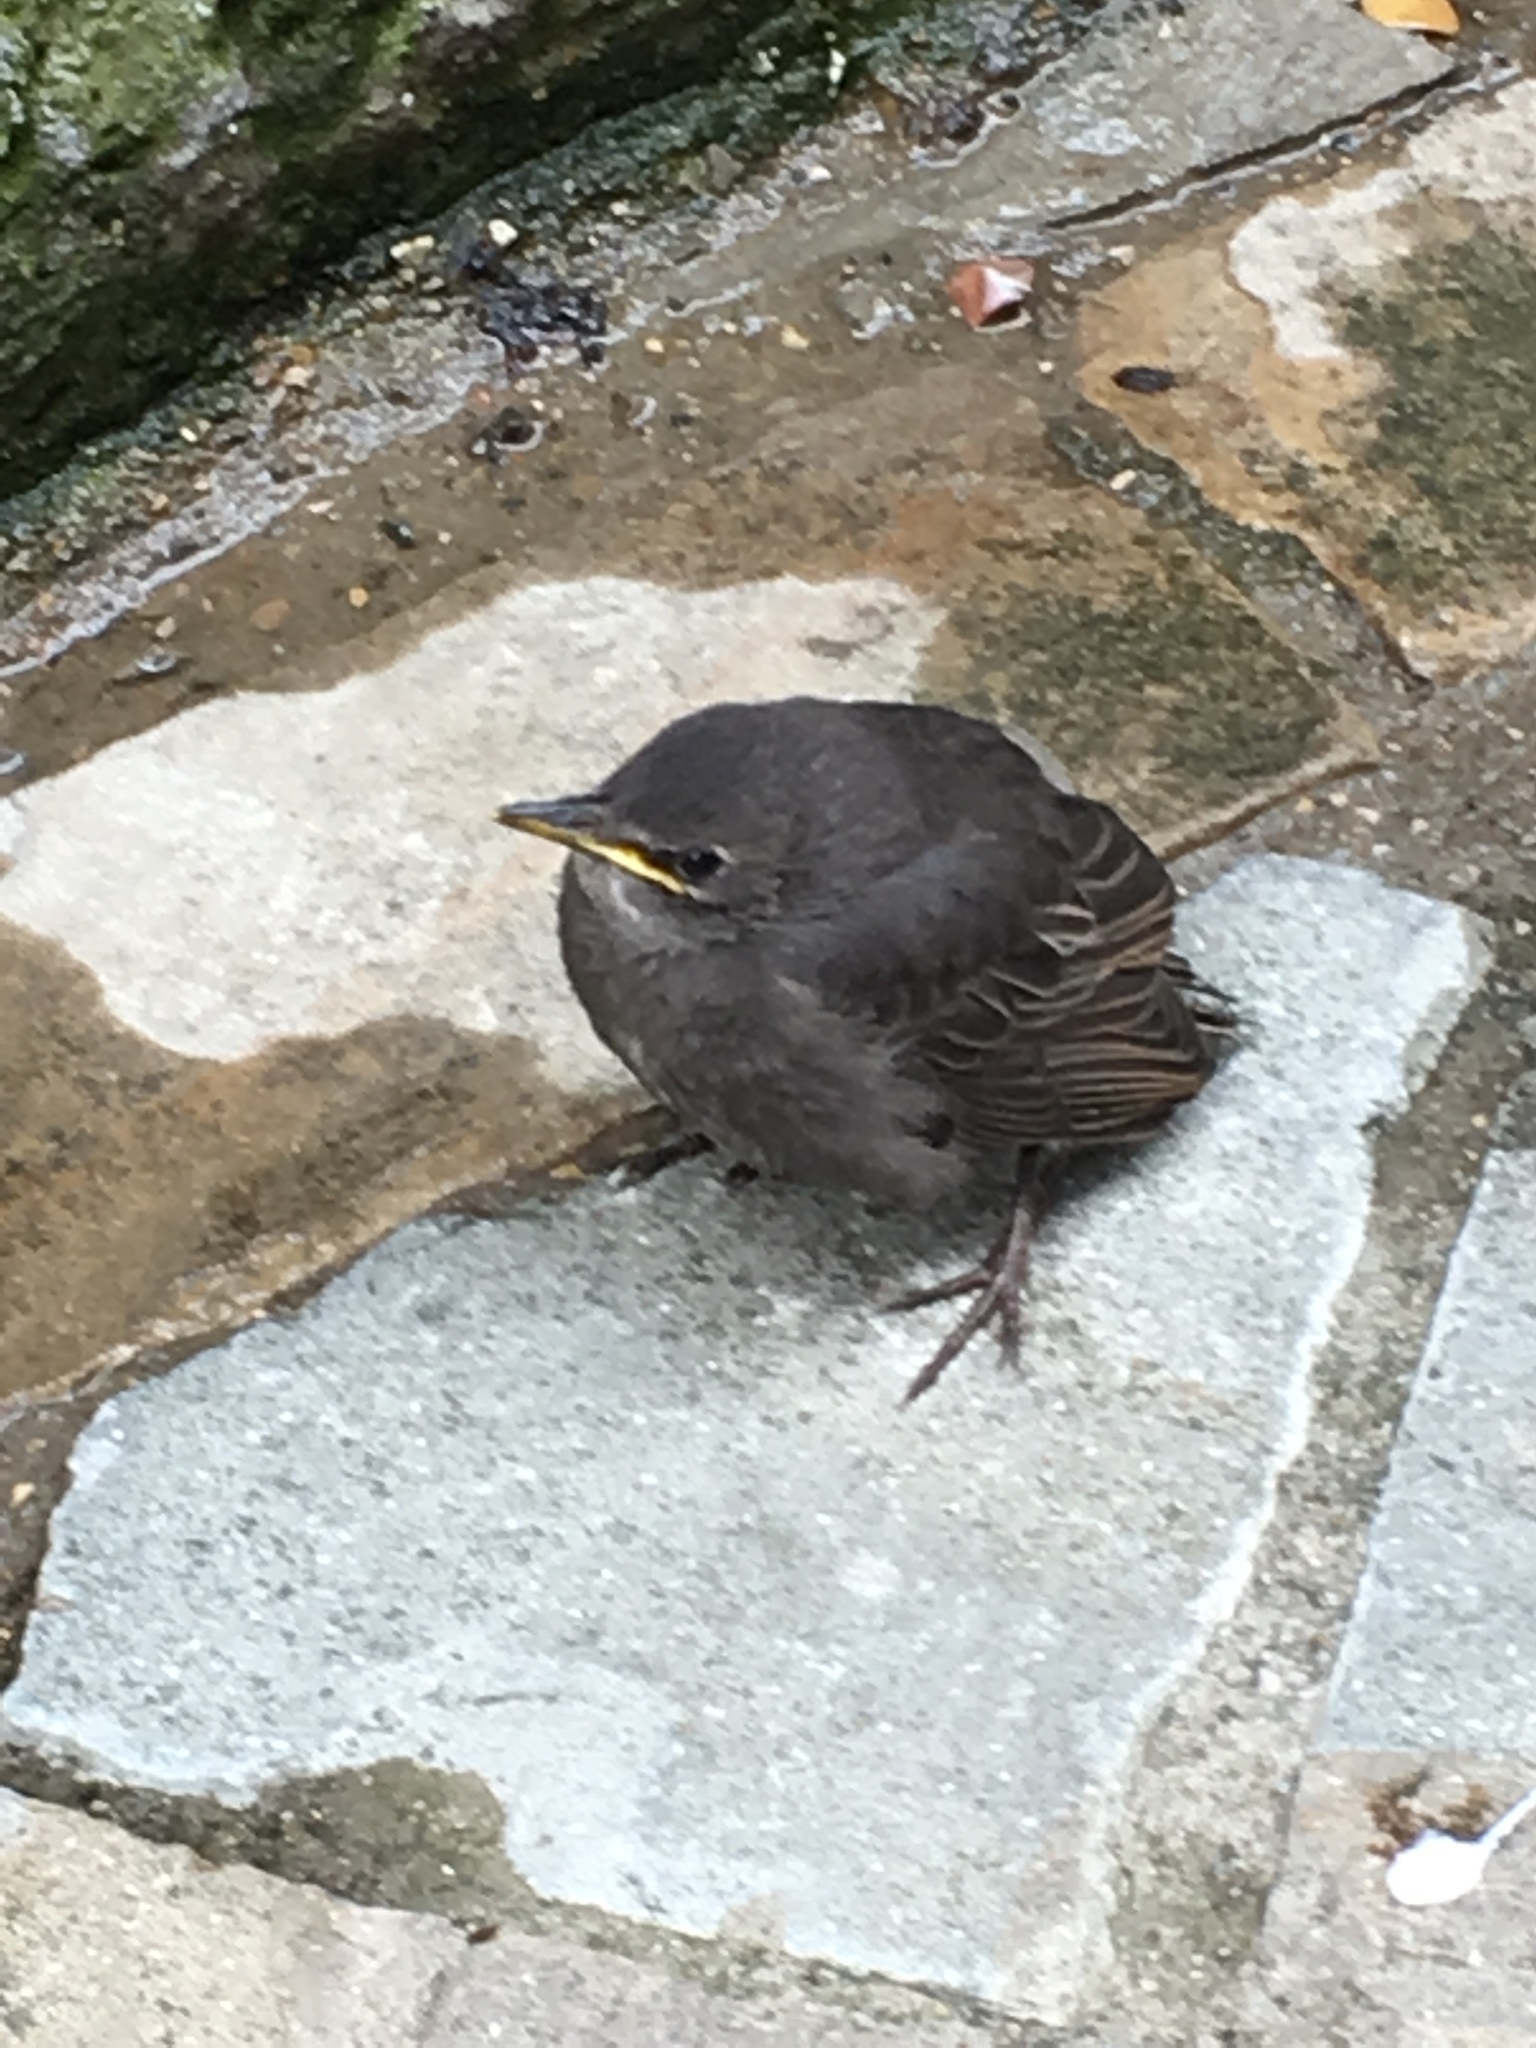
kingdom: Animalia
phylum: Chordata
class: Aves
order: Passeriformes
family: Sturnidae
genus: Sturnus
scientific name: Sturnus vulgaris
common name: Common starling
